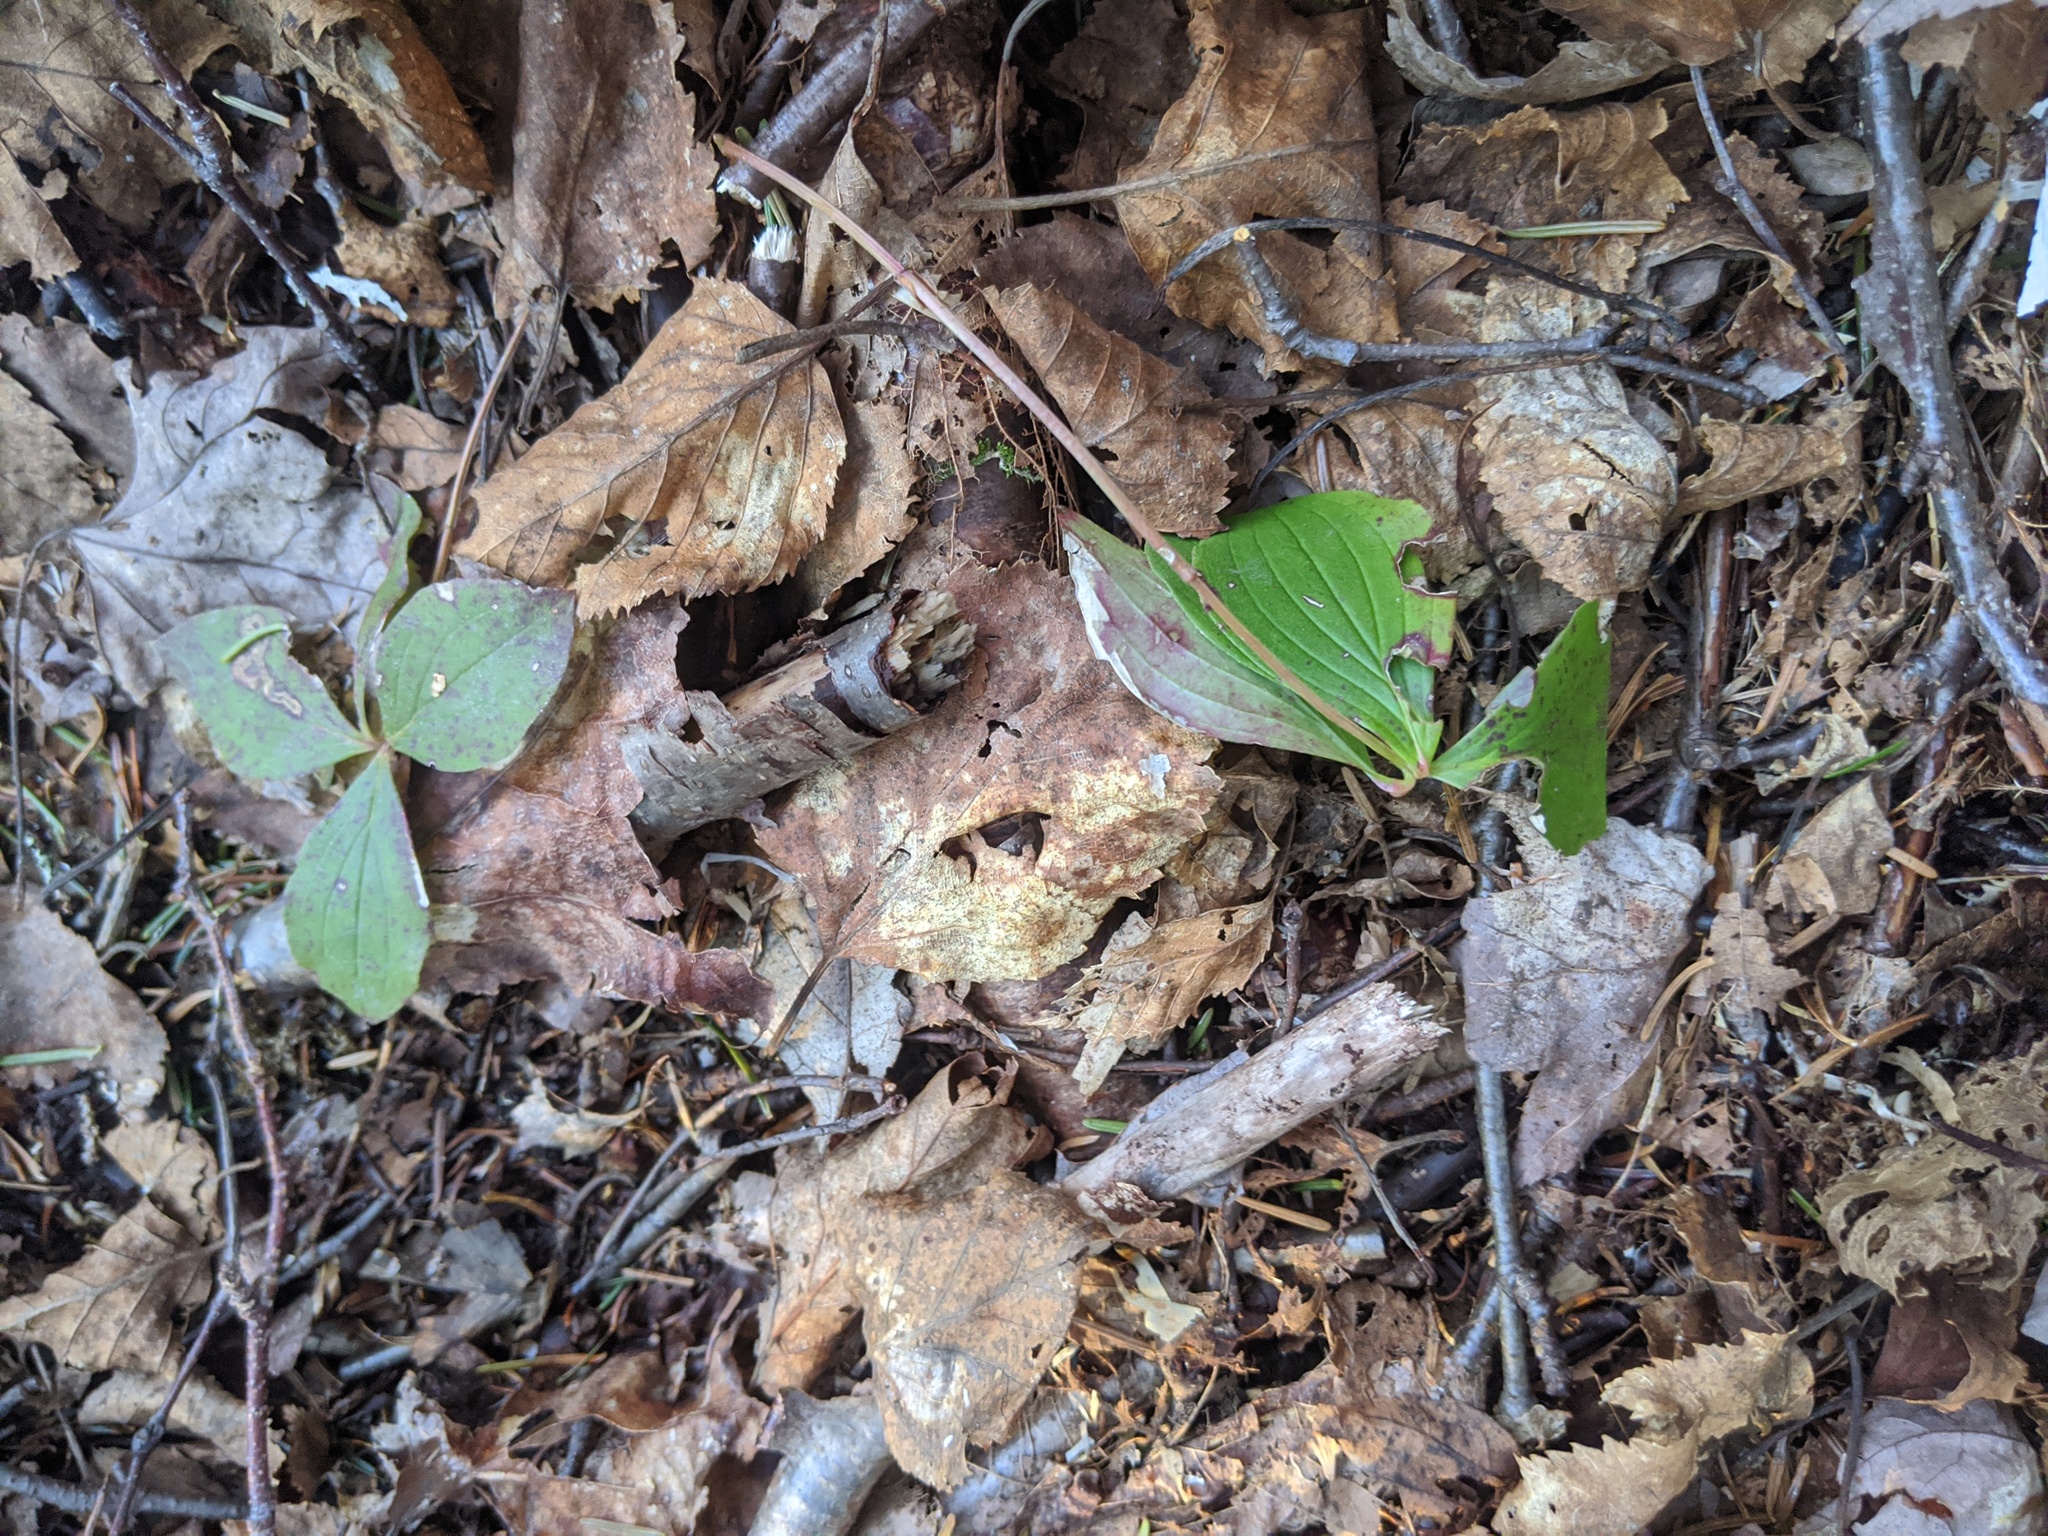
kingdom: Plantae
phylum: Tracheophyta
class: Magnoliopsida
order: Cornales
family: Cornaceae
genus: Cornus
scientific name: Cornus canadensis
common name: Creeping dogwood
